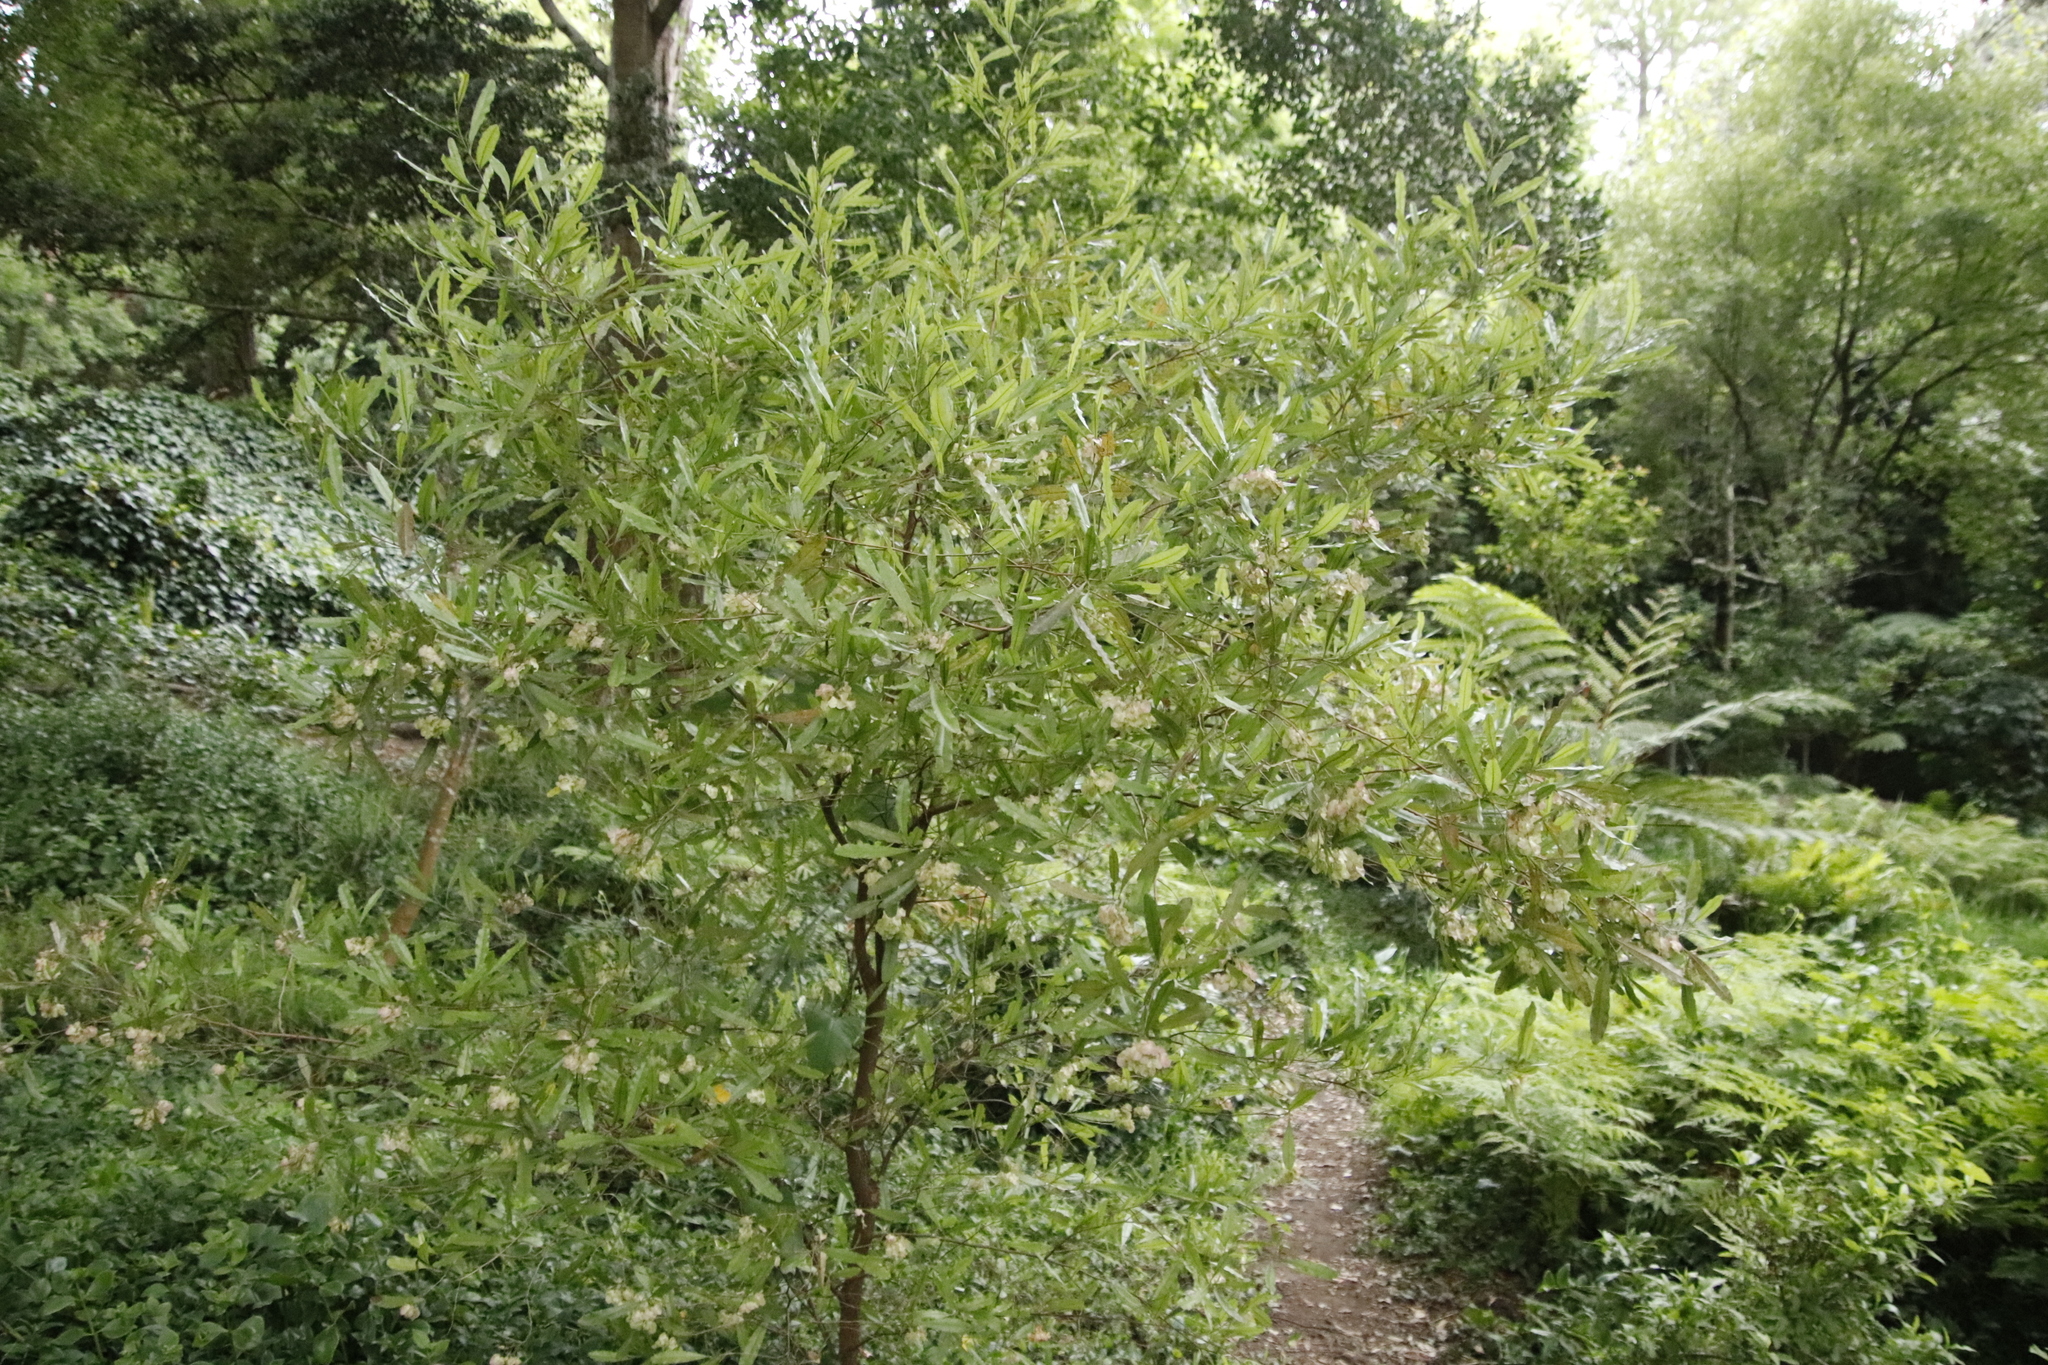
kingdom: Plantae
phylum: Tracheophyta
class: Magnoliopsida
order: Sapindales
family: Sapindaceae
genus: Dodonaea
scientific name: Dodonaea viscosa
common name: Hopbush
